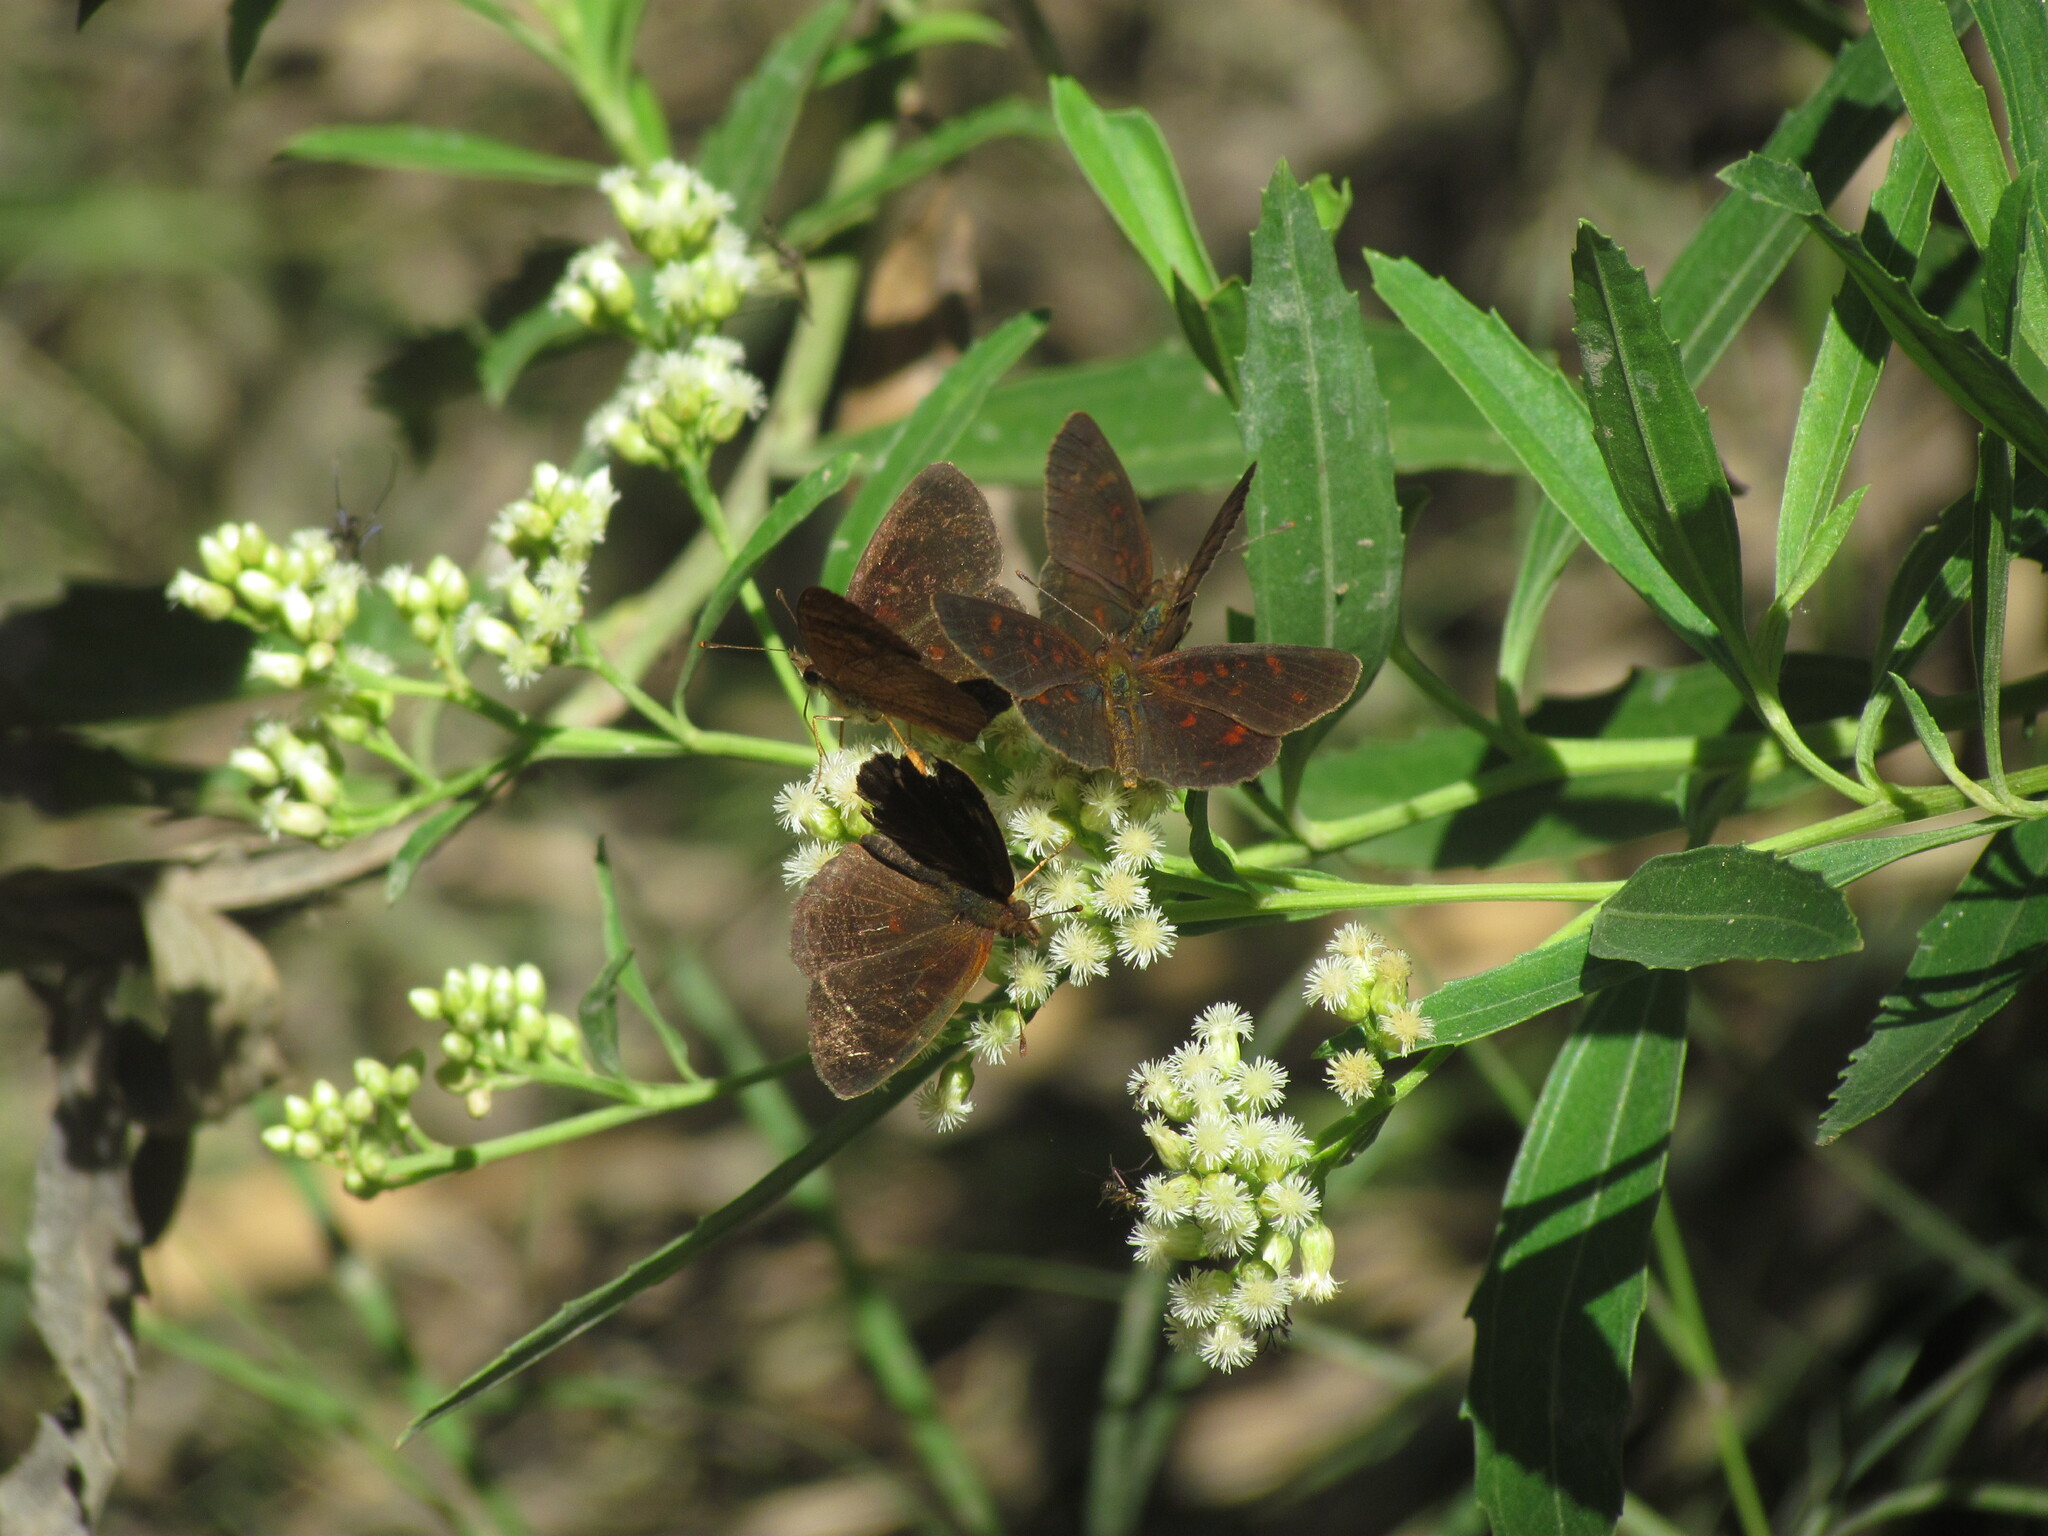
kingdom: Animalia
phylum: Arthropoda
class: Insecta
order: Lepidoptera
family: Nymphalidae
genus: Ortilia
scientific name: Ortilia velica
